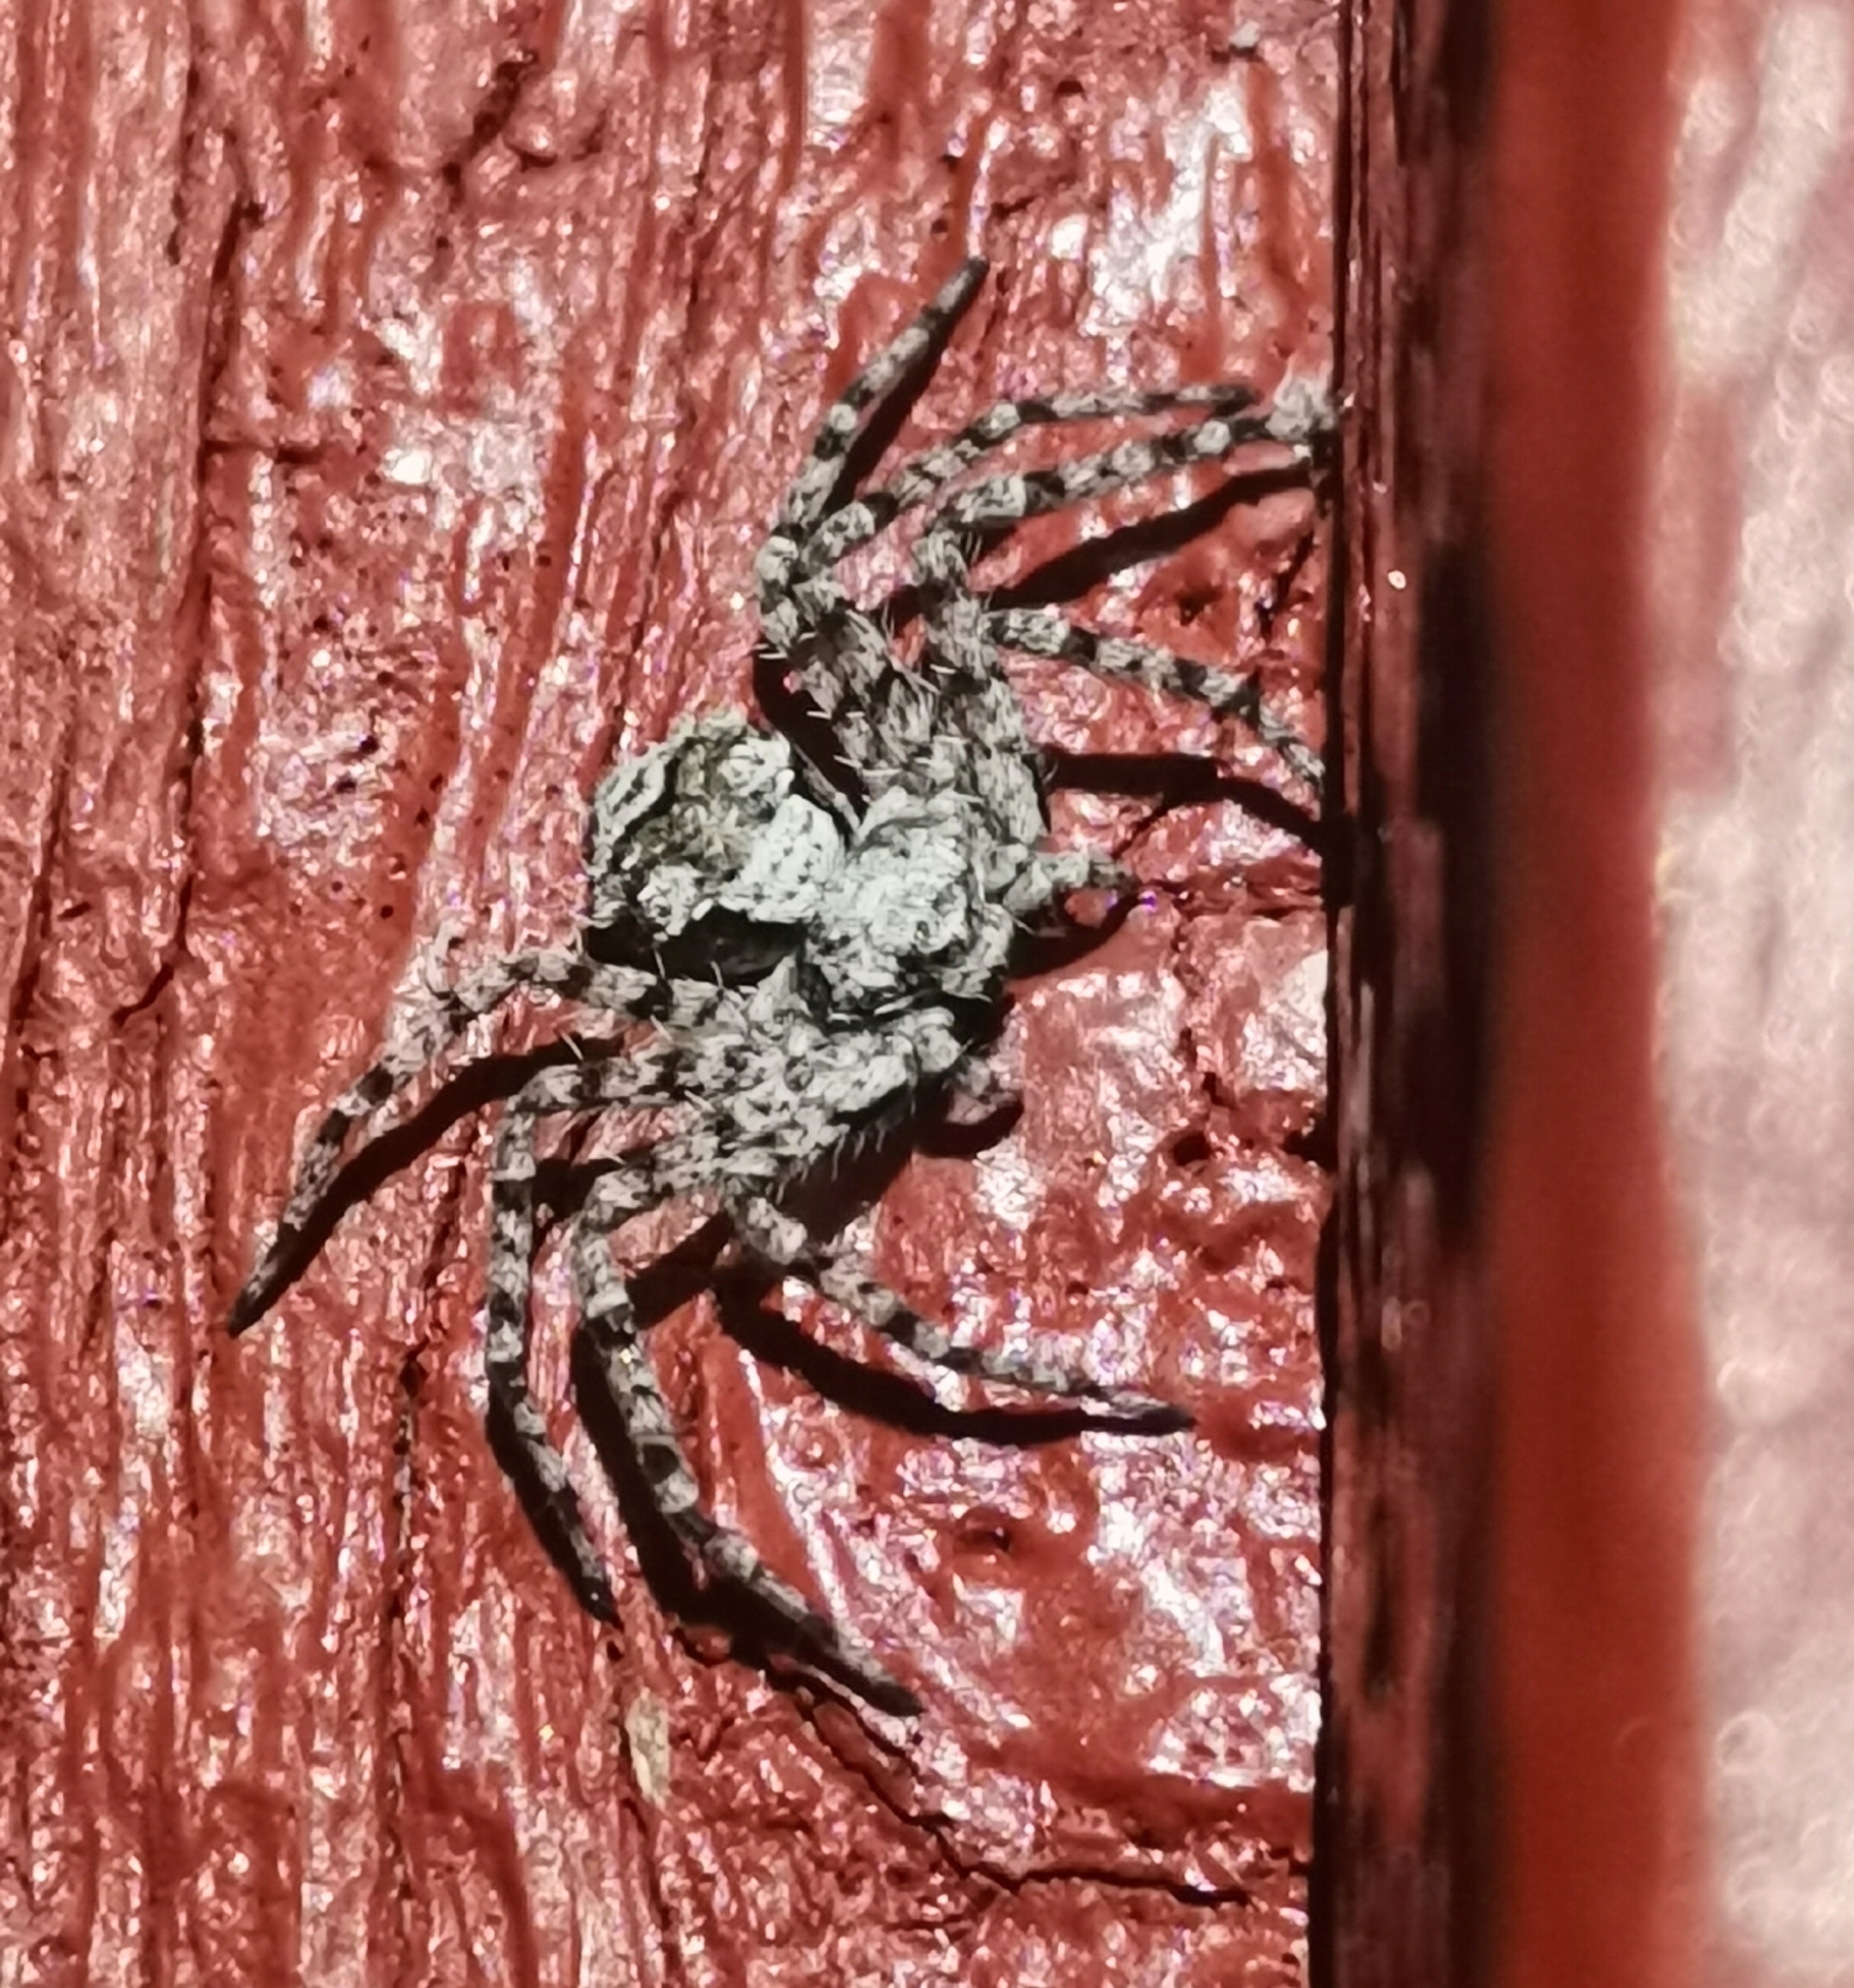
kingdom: Animalia
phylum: Arthropoda
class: Arachnida
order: Araneae
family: Philodromidae
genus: Philodromus
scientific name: Philodromus margaritatus
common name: Lichen running-spider
